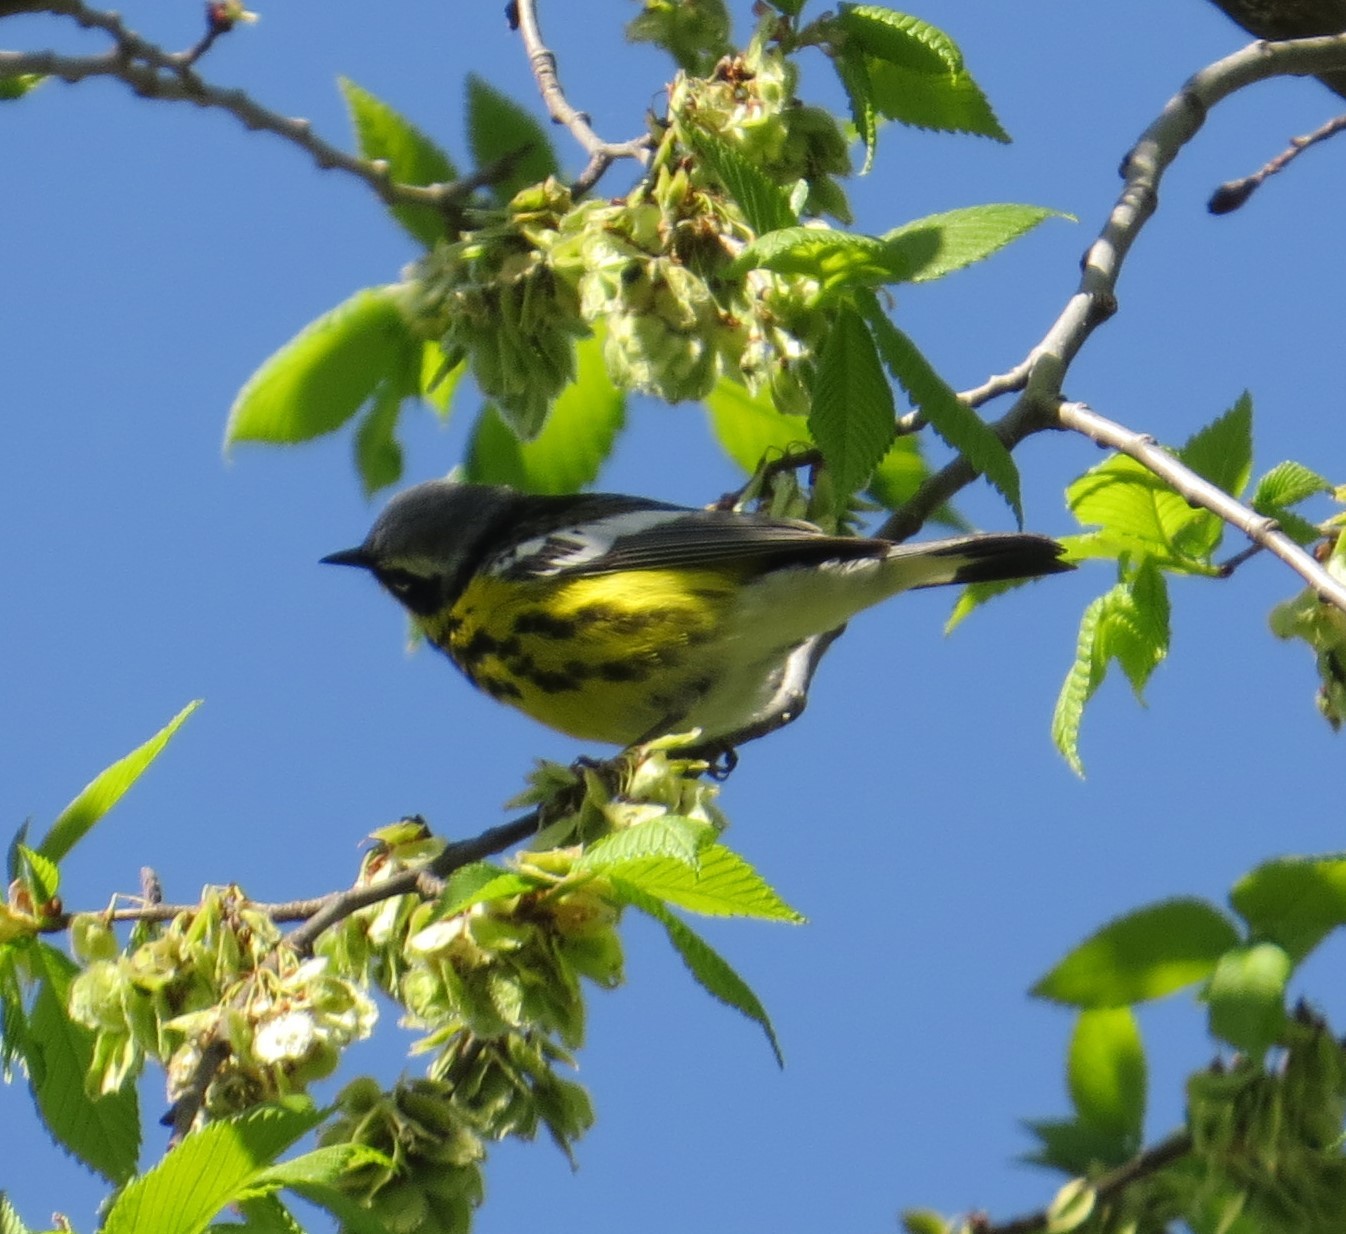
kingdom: Animalia
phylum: Chordata
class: Aves
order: Passeriformes
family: Parulidae
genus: Setophaga
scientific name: Setophaga magnolia
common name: Magnolia warbler
